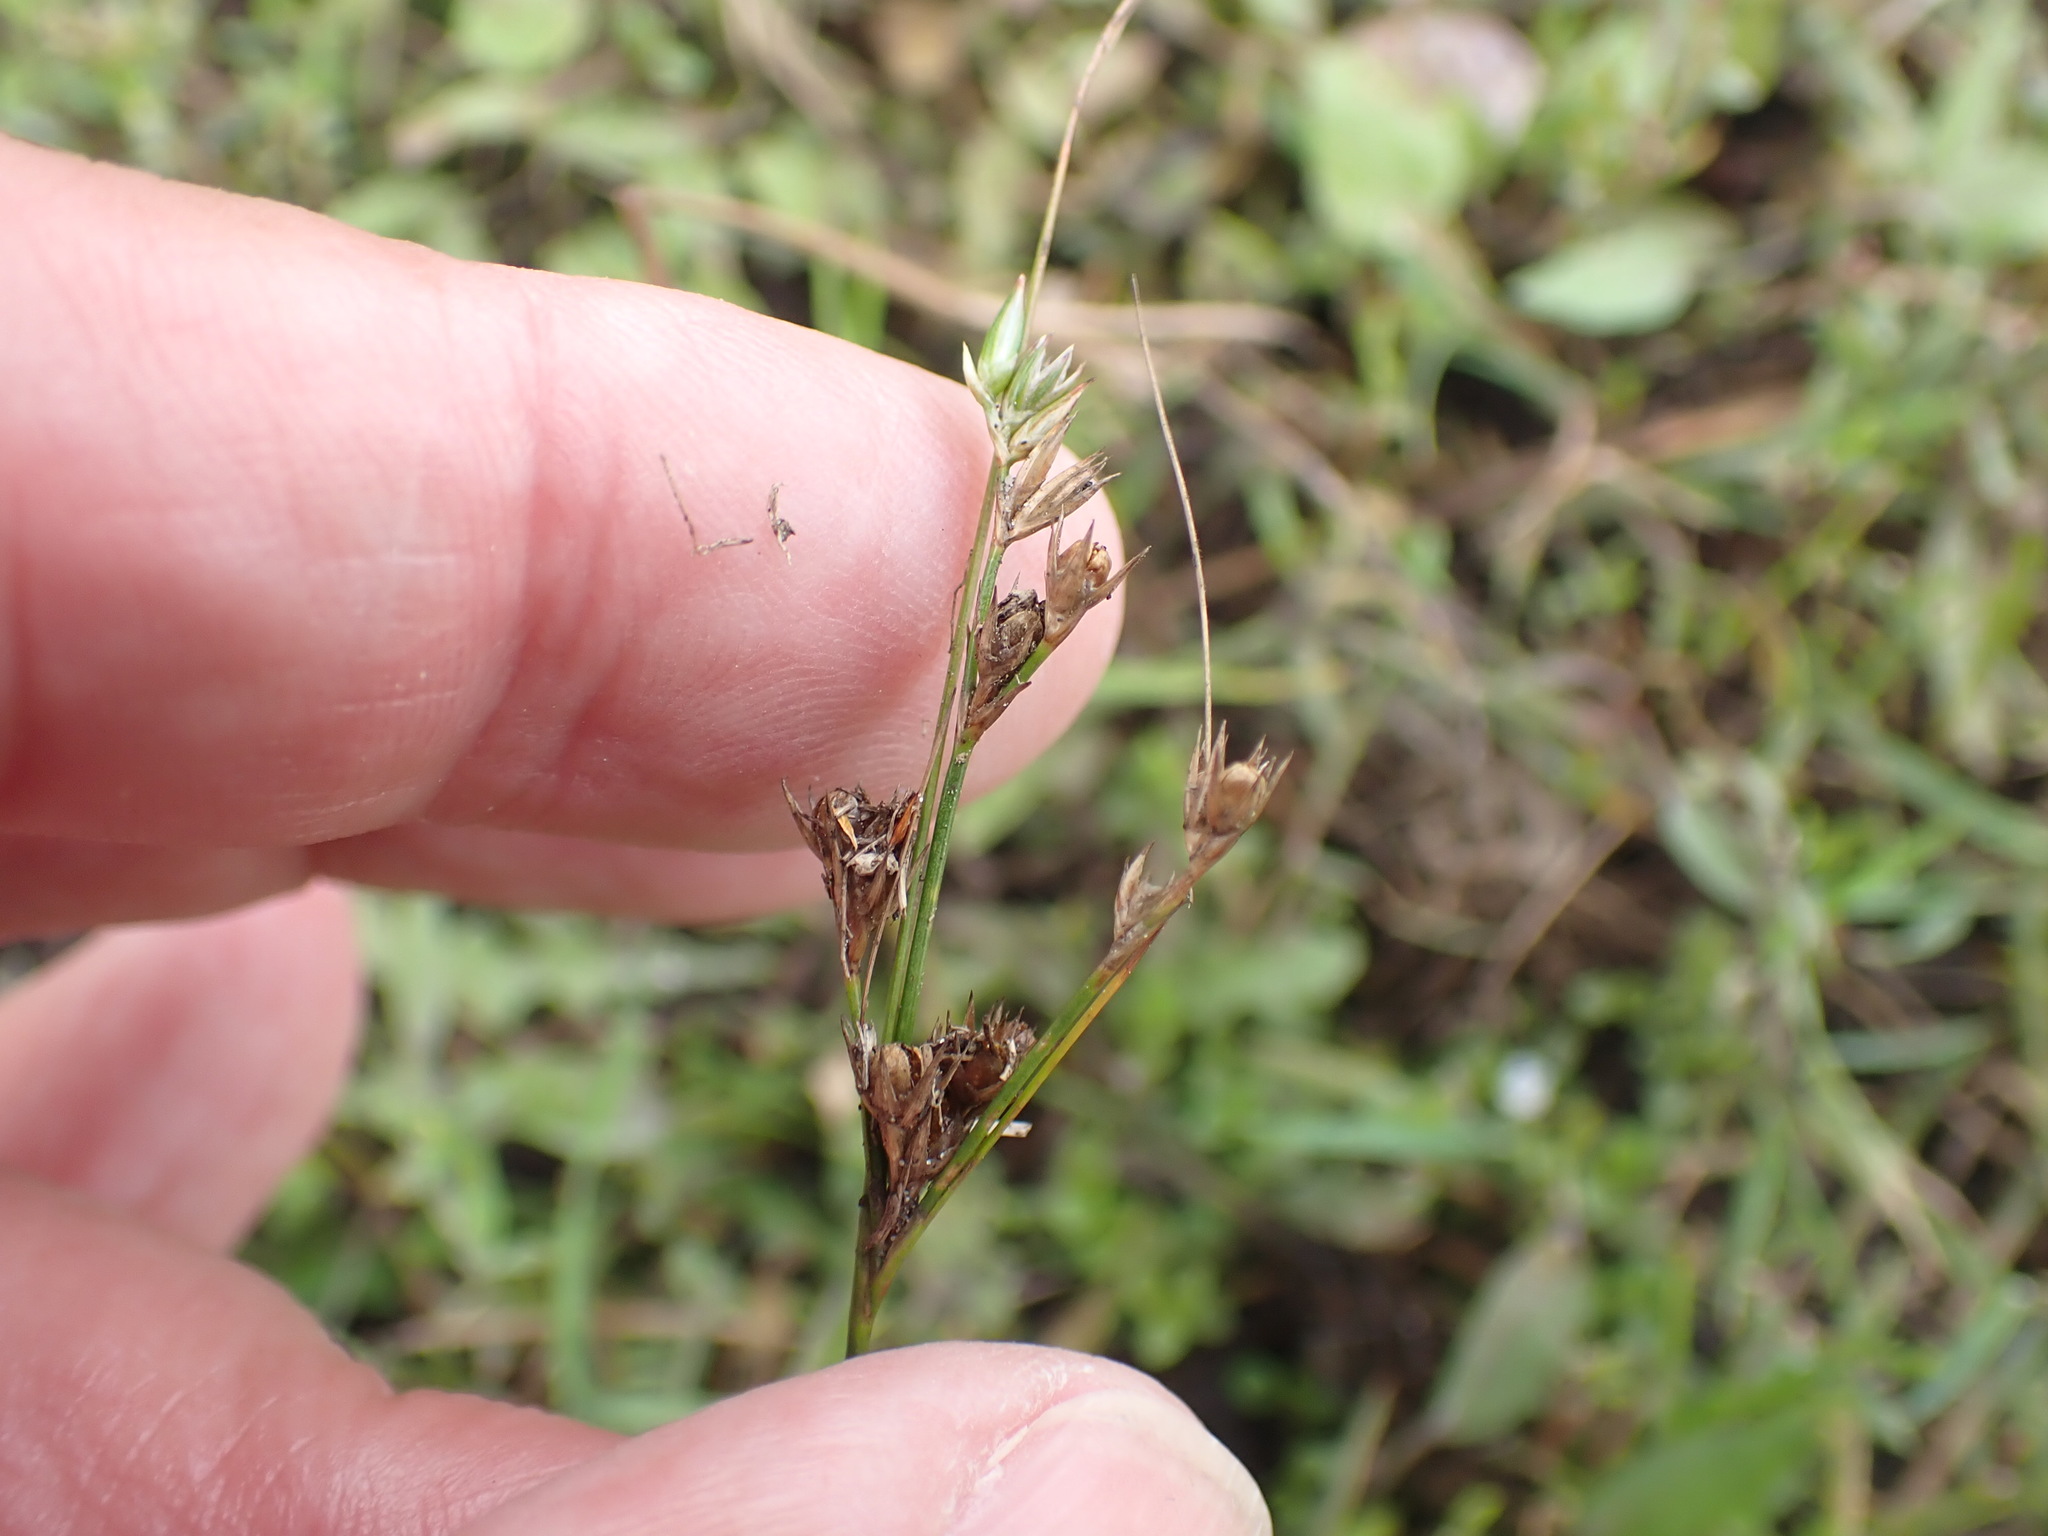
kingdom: Plantae
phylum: Tracheophyta
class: Liliopsida
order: Poales
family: Juncaceae
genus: Juncus
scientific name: Juncus tenuis
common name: Slender rush
